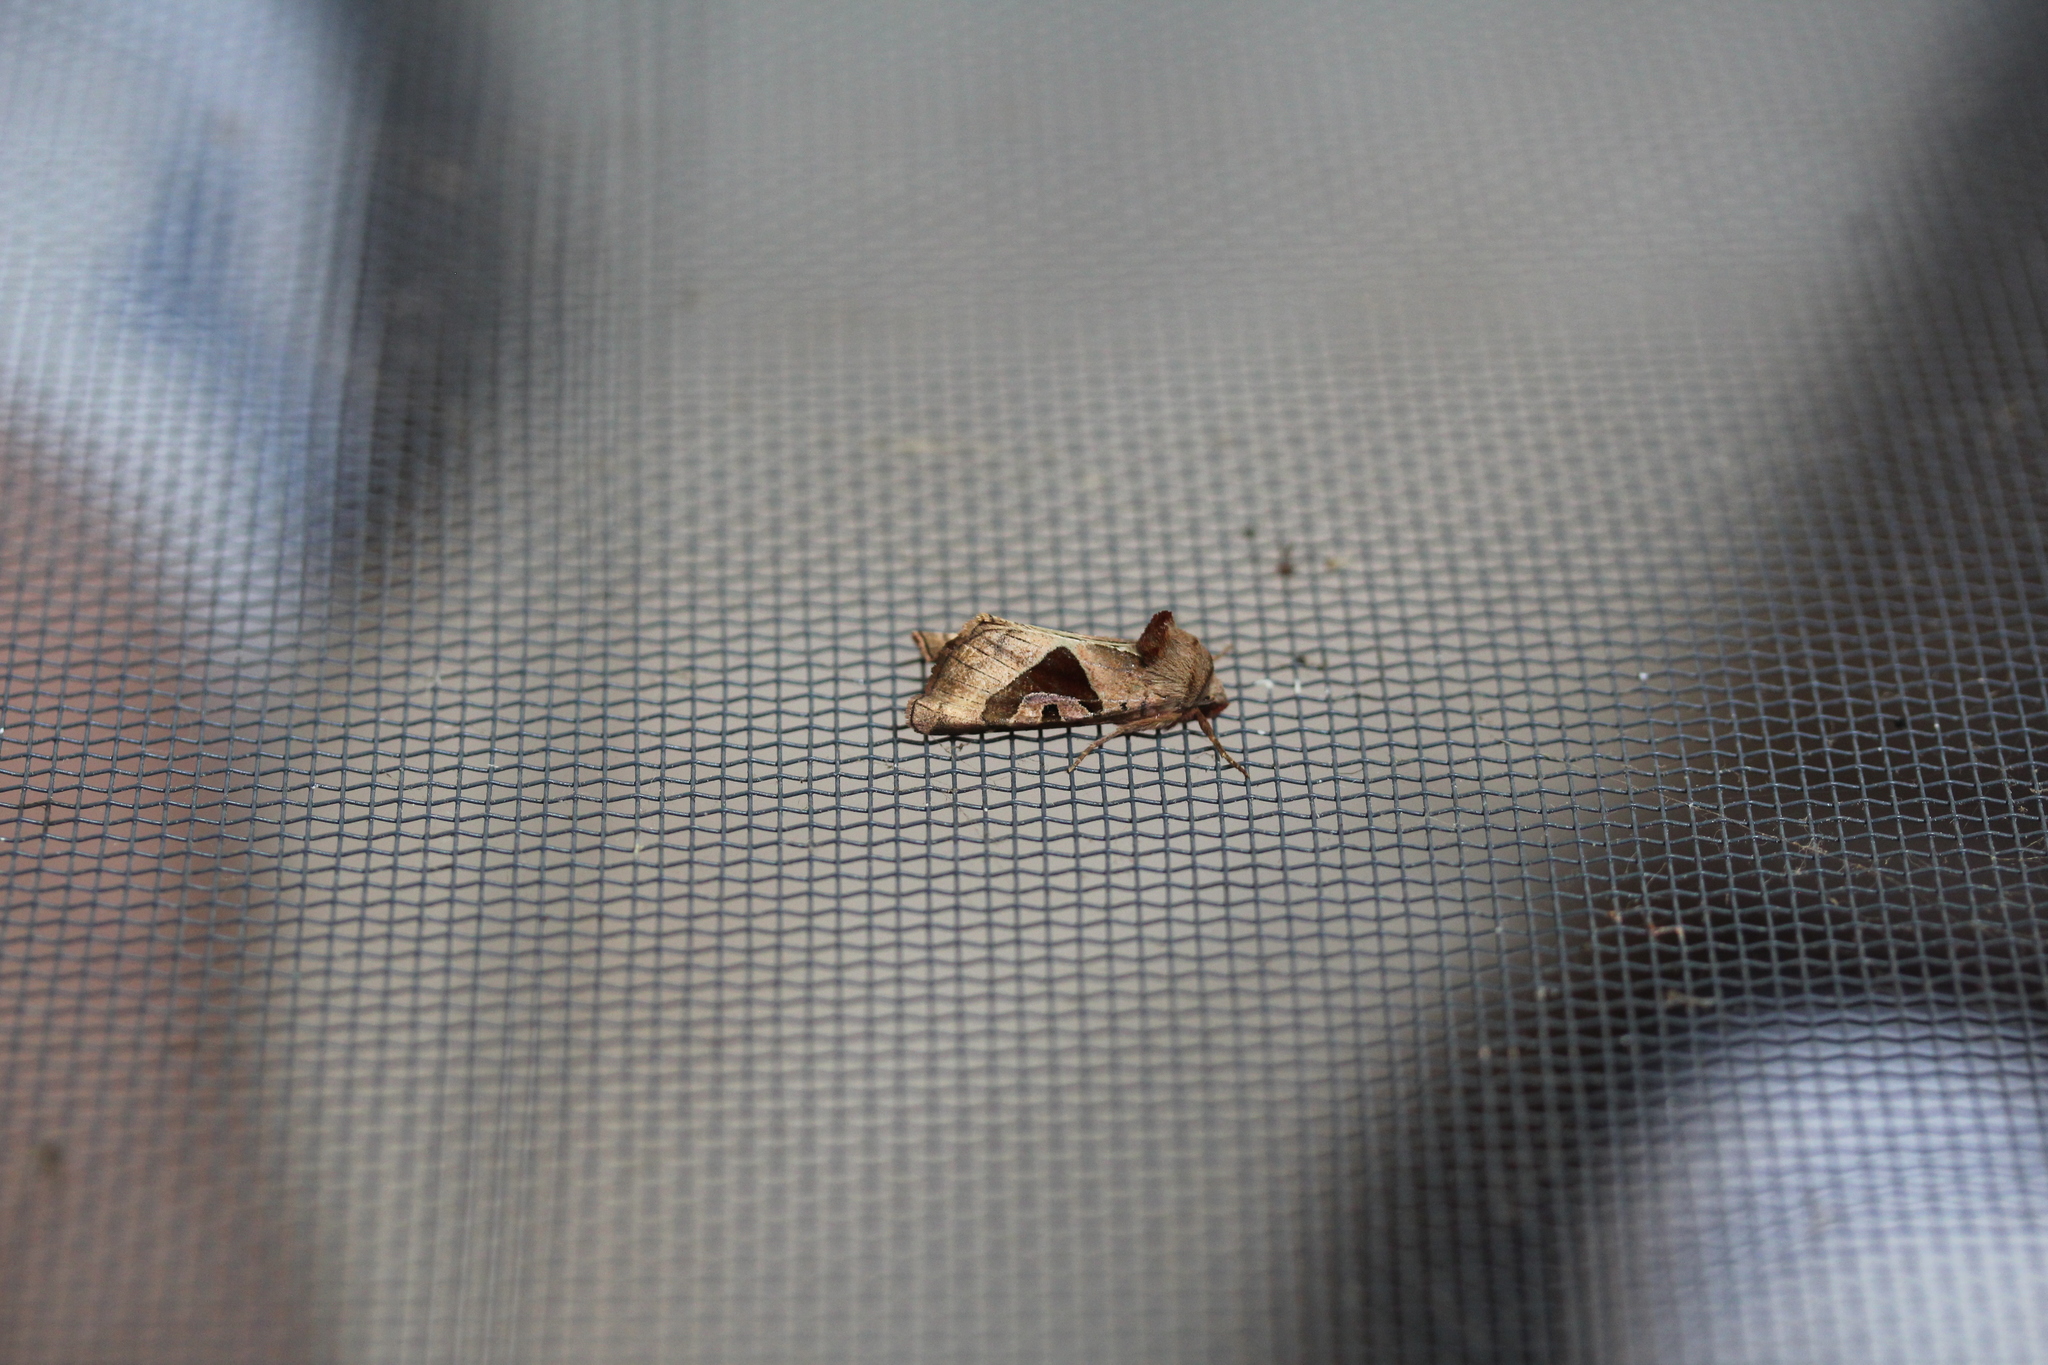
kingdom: Animalia
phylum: Arthropoda
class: Insecta
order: Lepidoptera
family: Noctuidae
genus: Conservula
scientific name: Conservula anodonta
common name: Sharp angle shades
